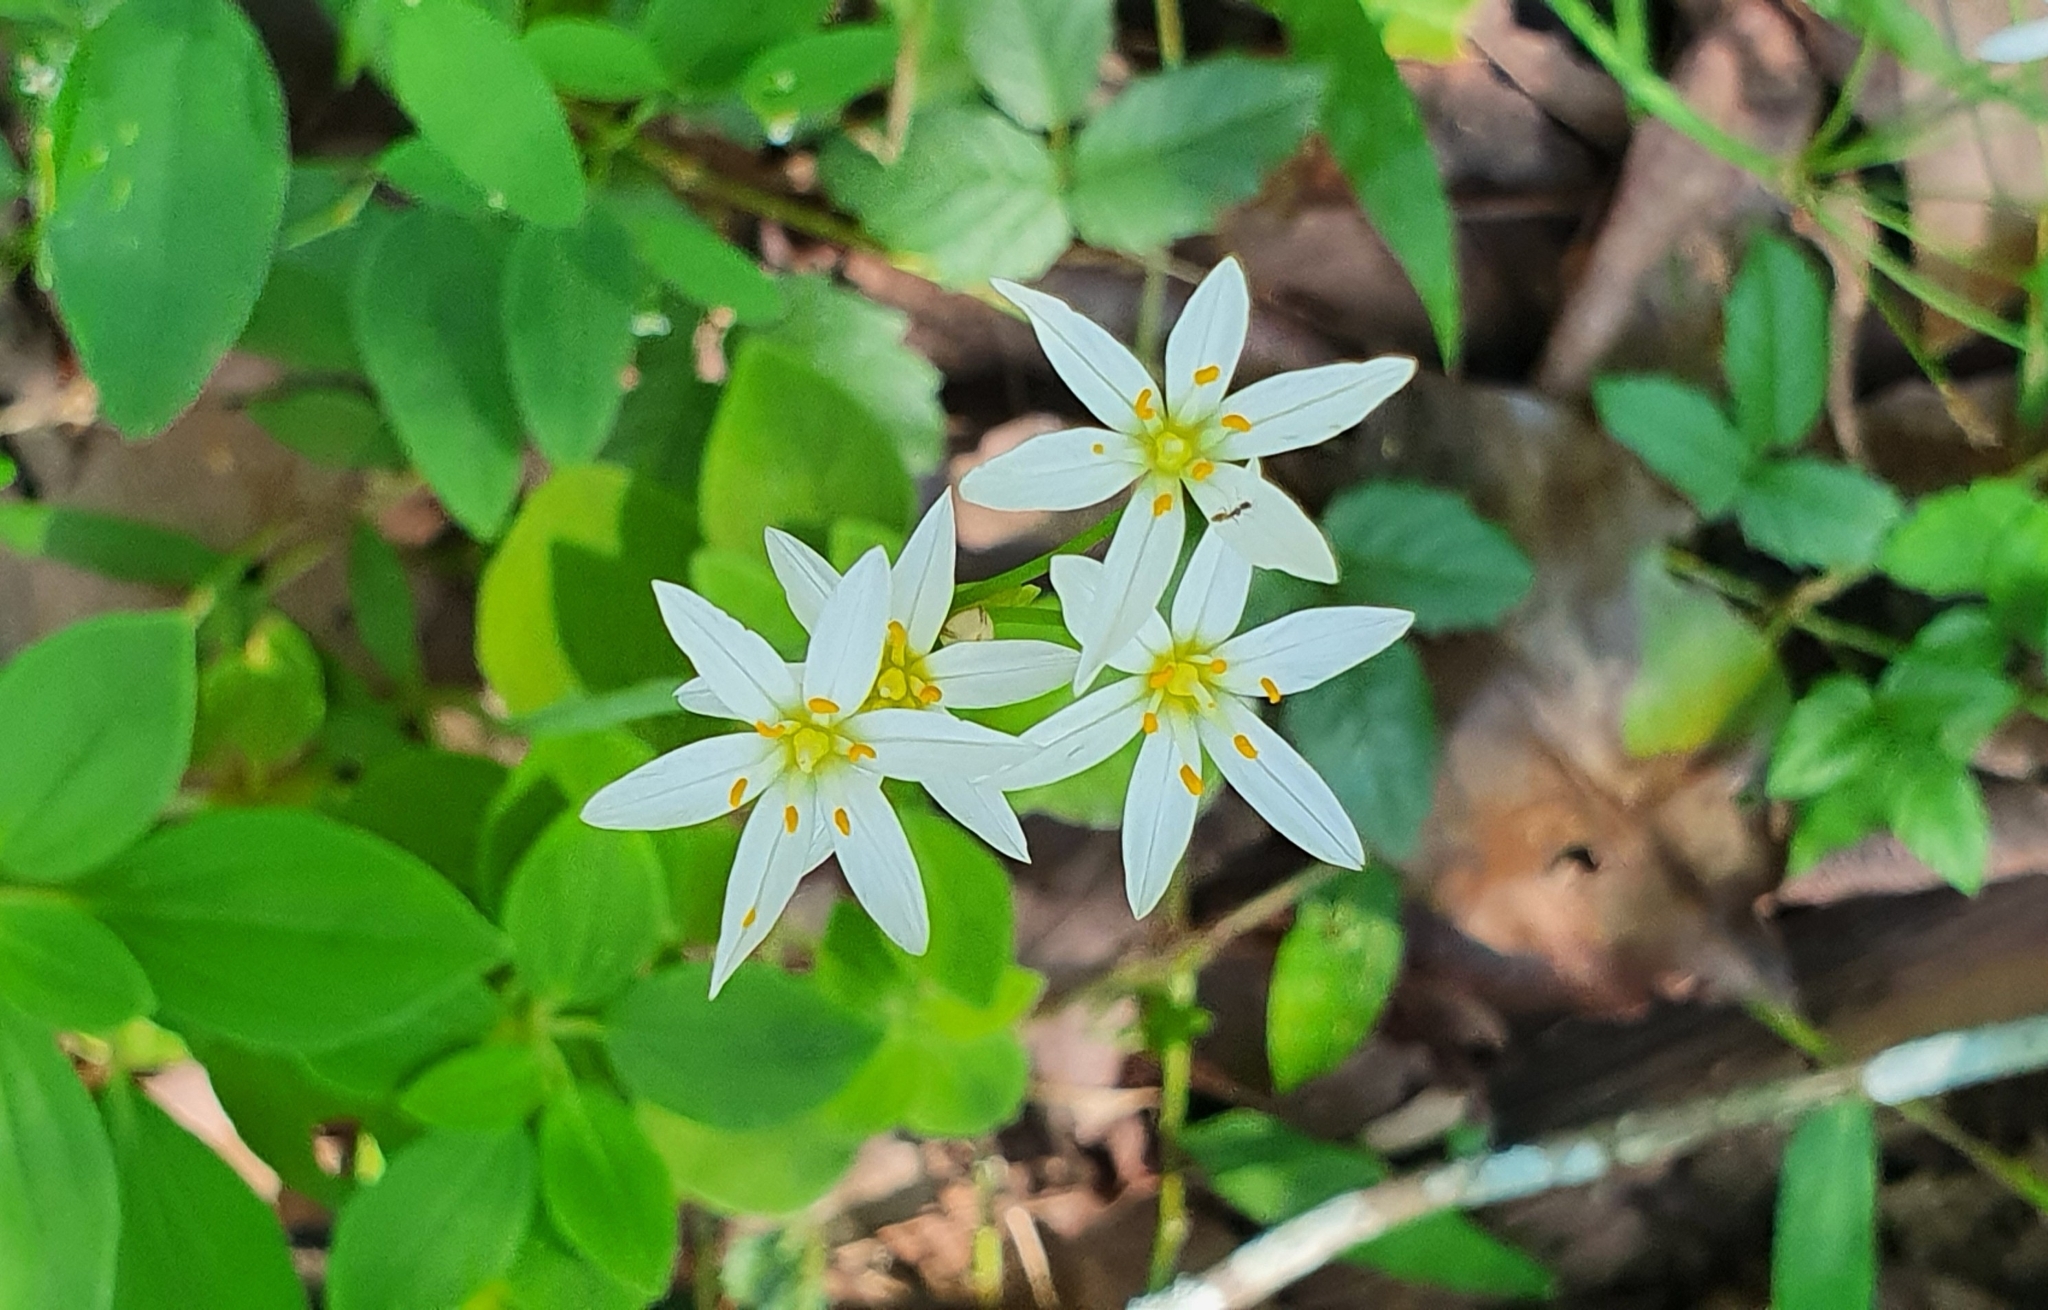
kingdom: Plantae
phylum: Tracheophyta
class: Liliopsida
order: Asparagales
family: Amaryllidaceae
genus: Nothoscordum
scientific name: Nothoscordum bivalve
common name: Crow-poison
